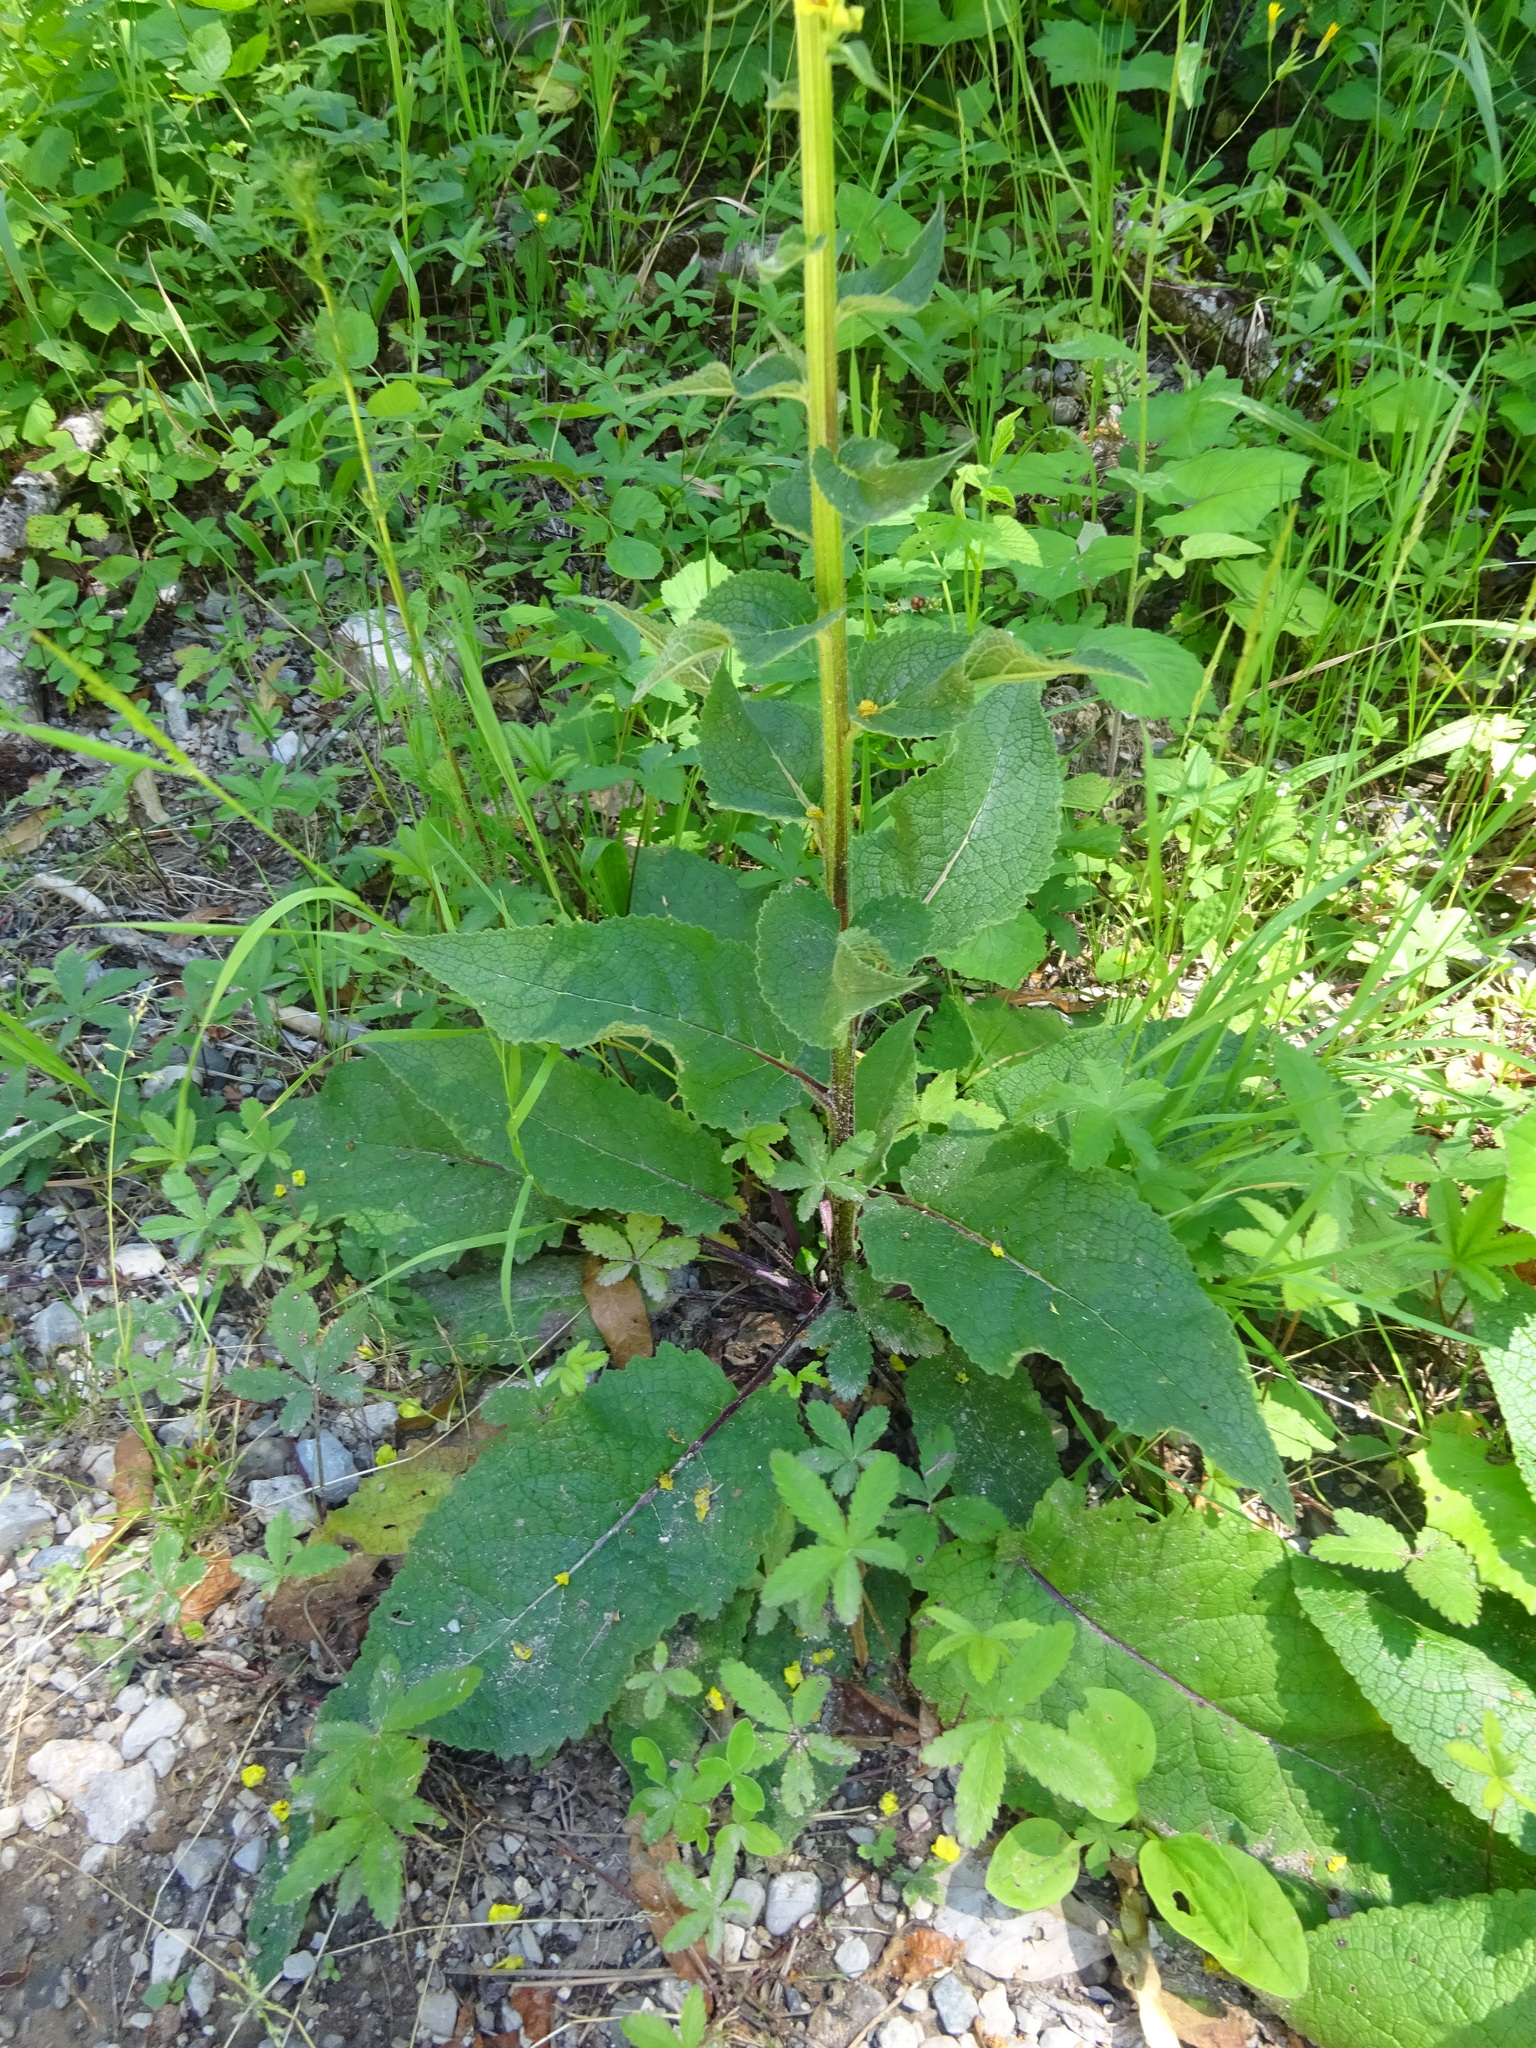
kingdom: Plantae
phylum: Tracheophyta
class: Magnoliopsida
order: Lamiales
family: Scrophulariaceae
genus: Verbascum
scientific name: Verbascum nigrum
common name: Dark mullein
